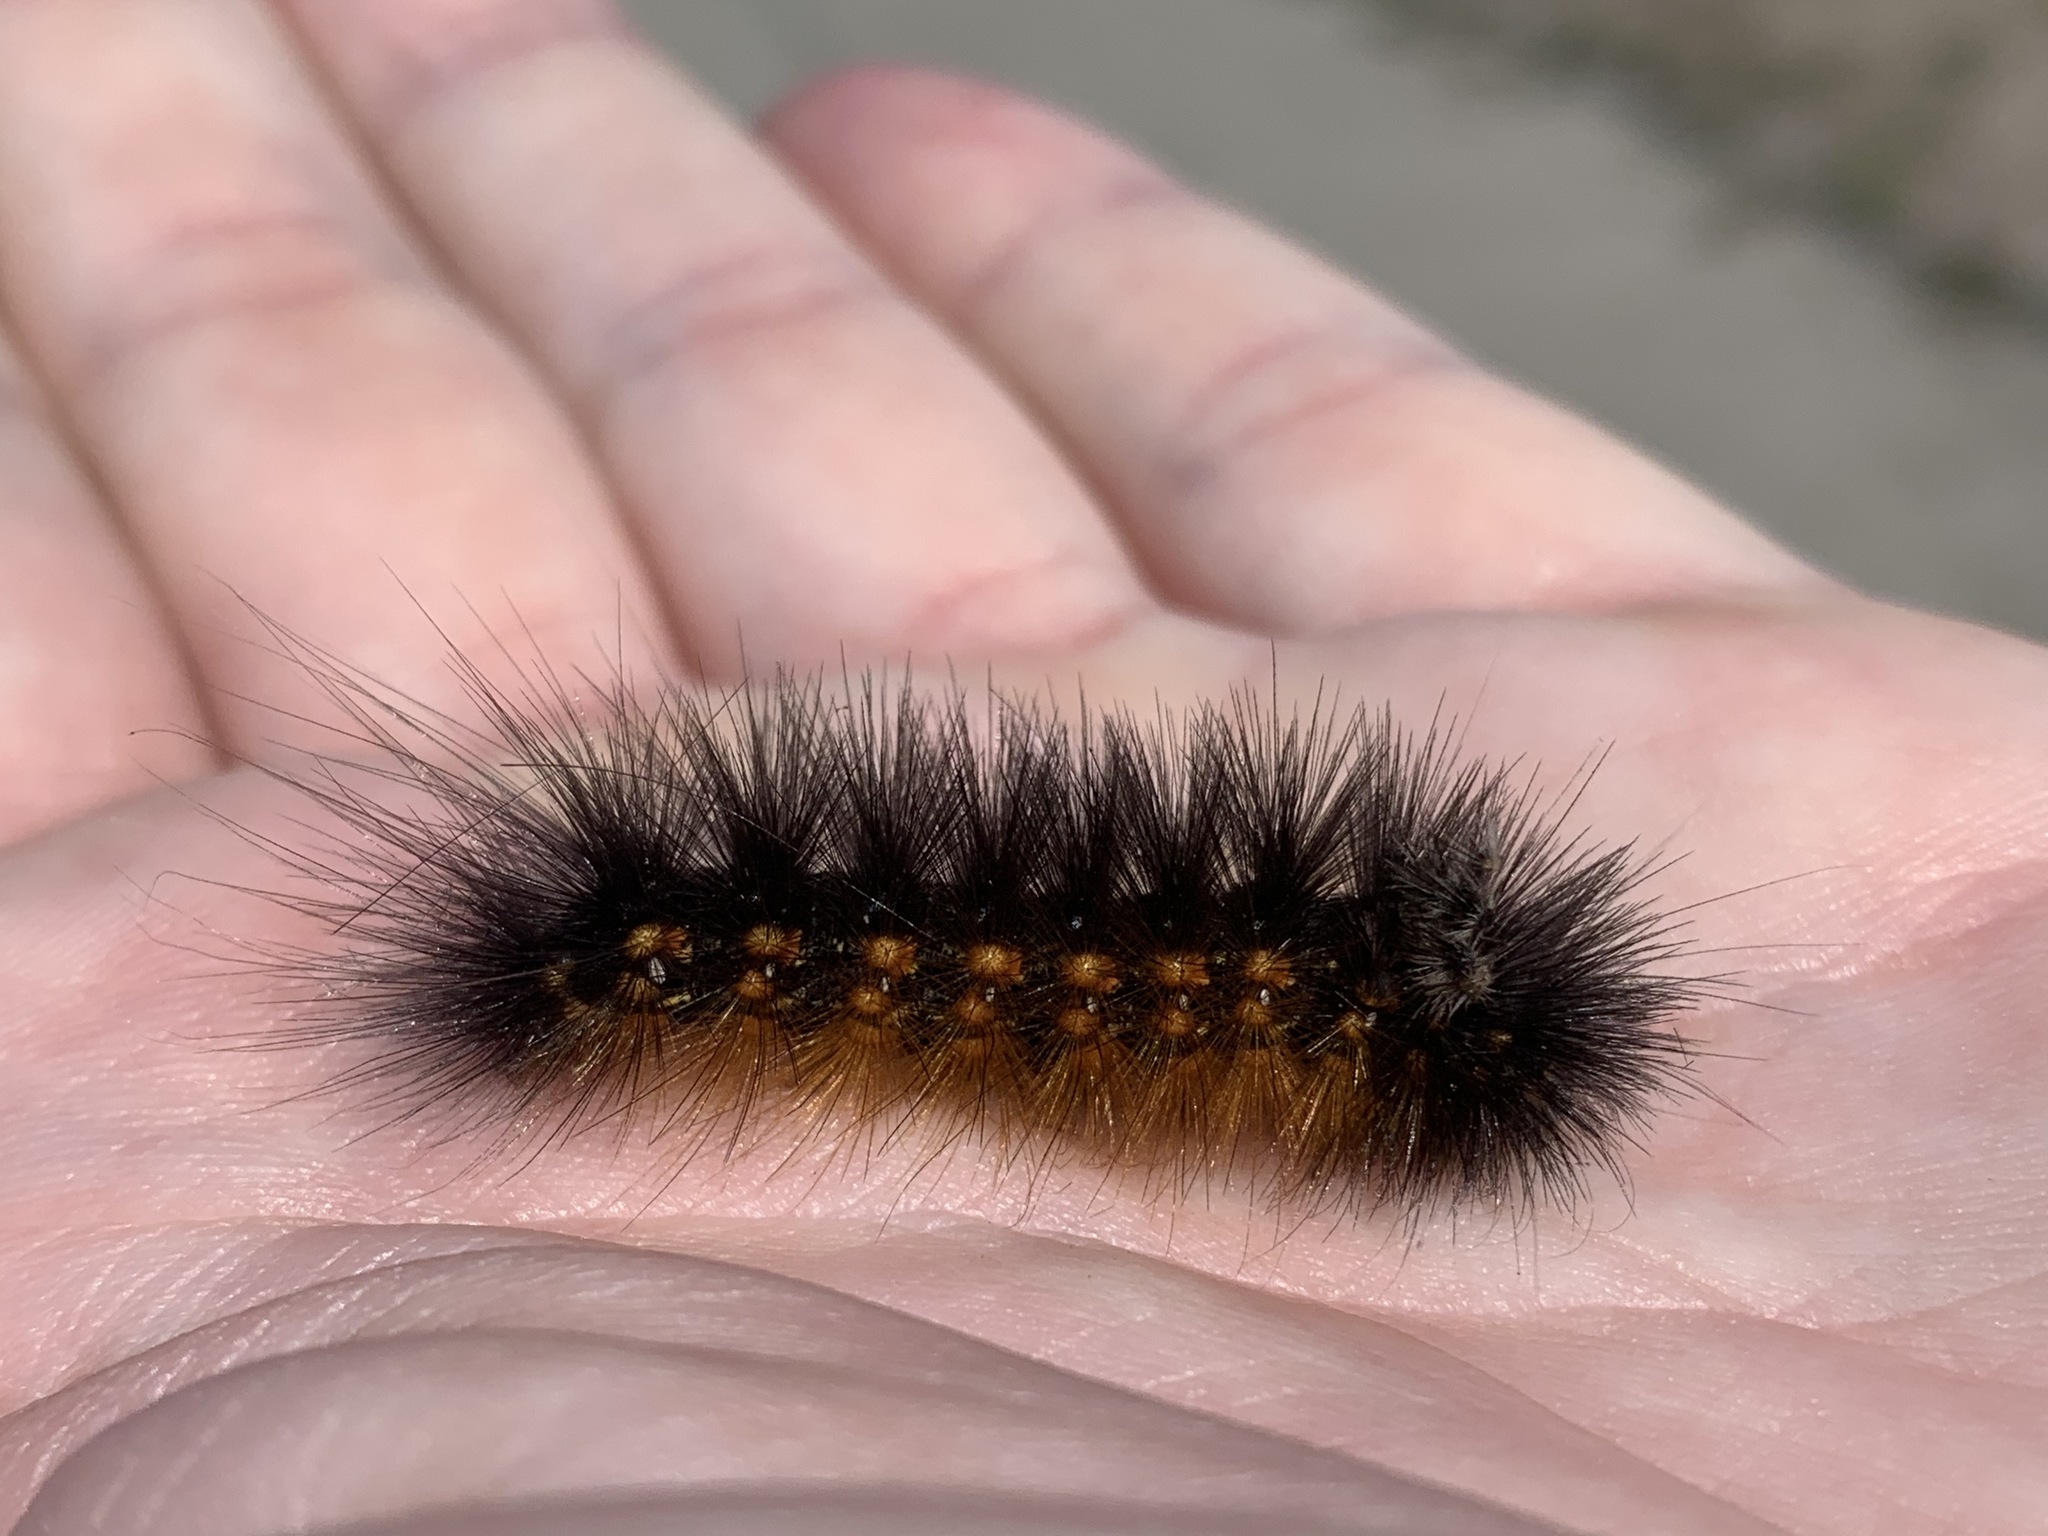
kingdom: Animalia
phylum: Arthropoda
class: Insecta
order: Lepidoptera
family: Erebidae
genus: Estigmene
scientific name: Estigmene acrea
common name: Salt marsh moth
